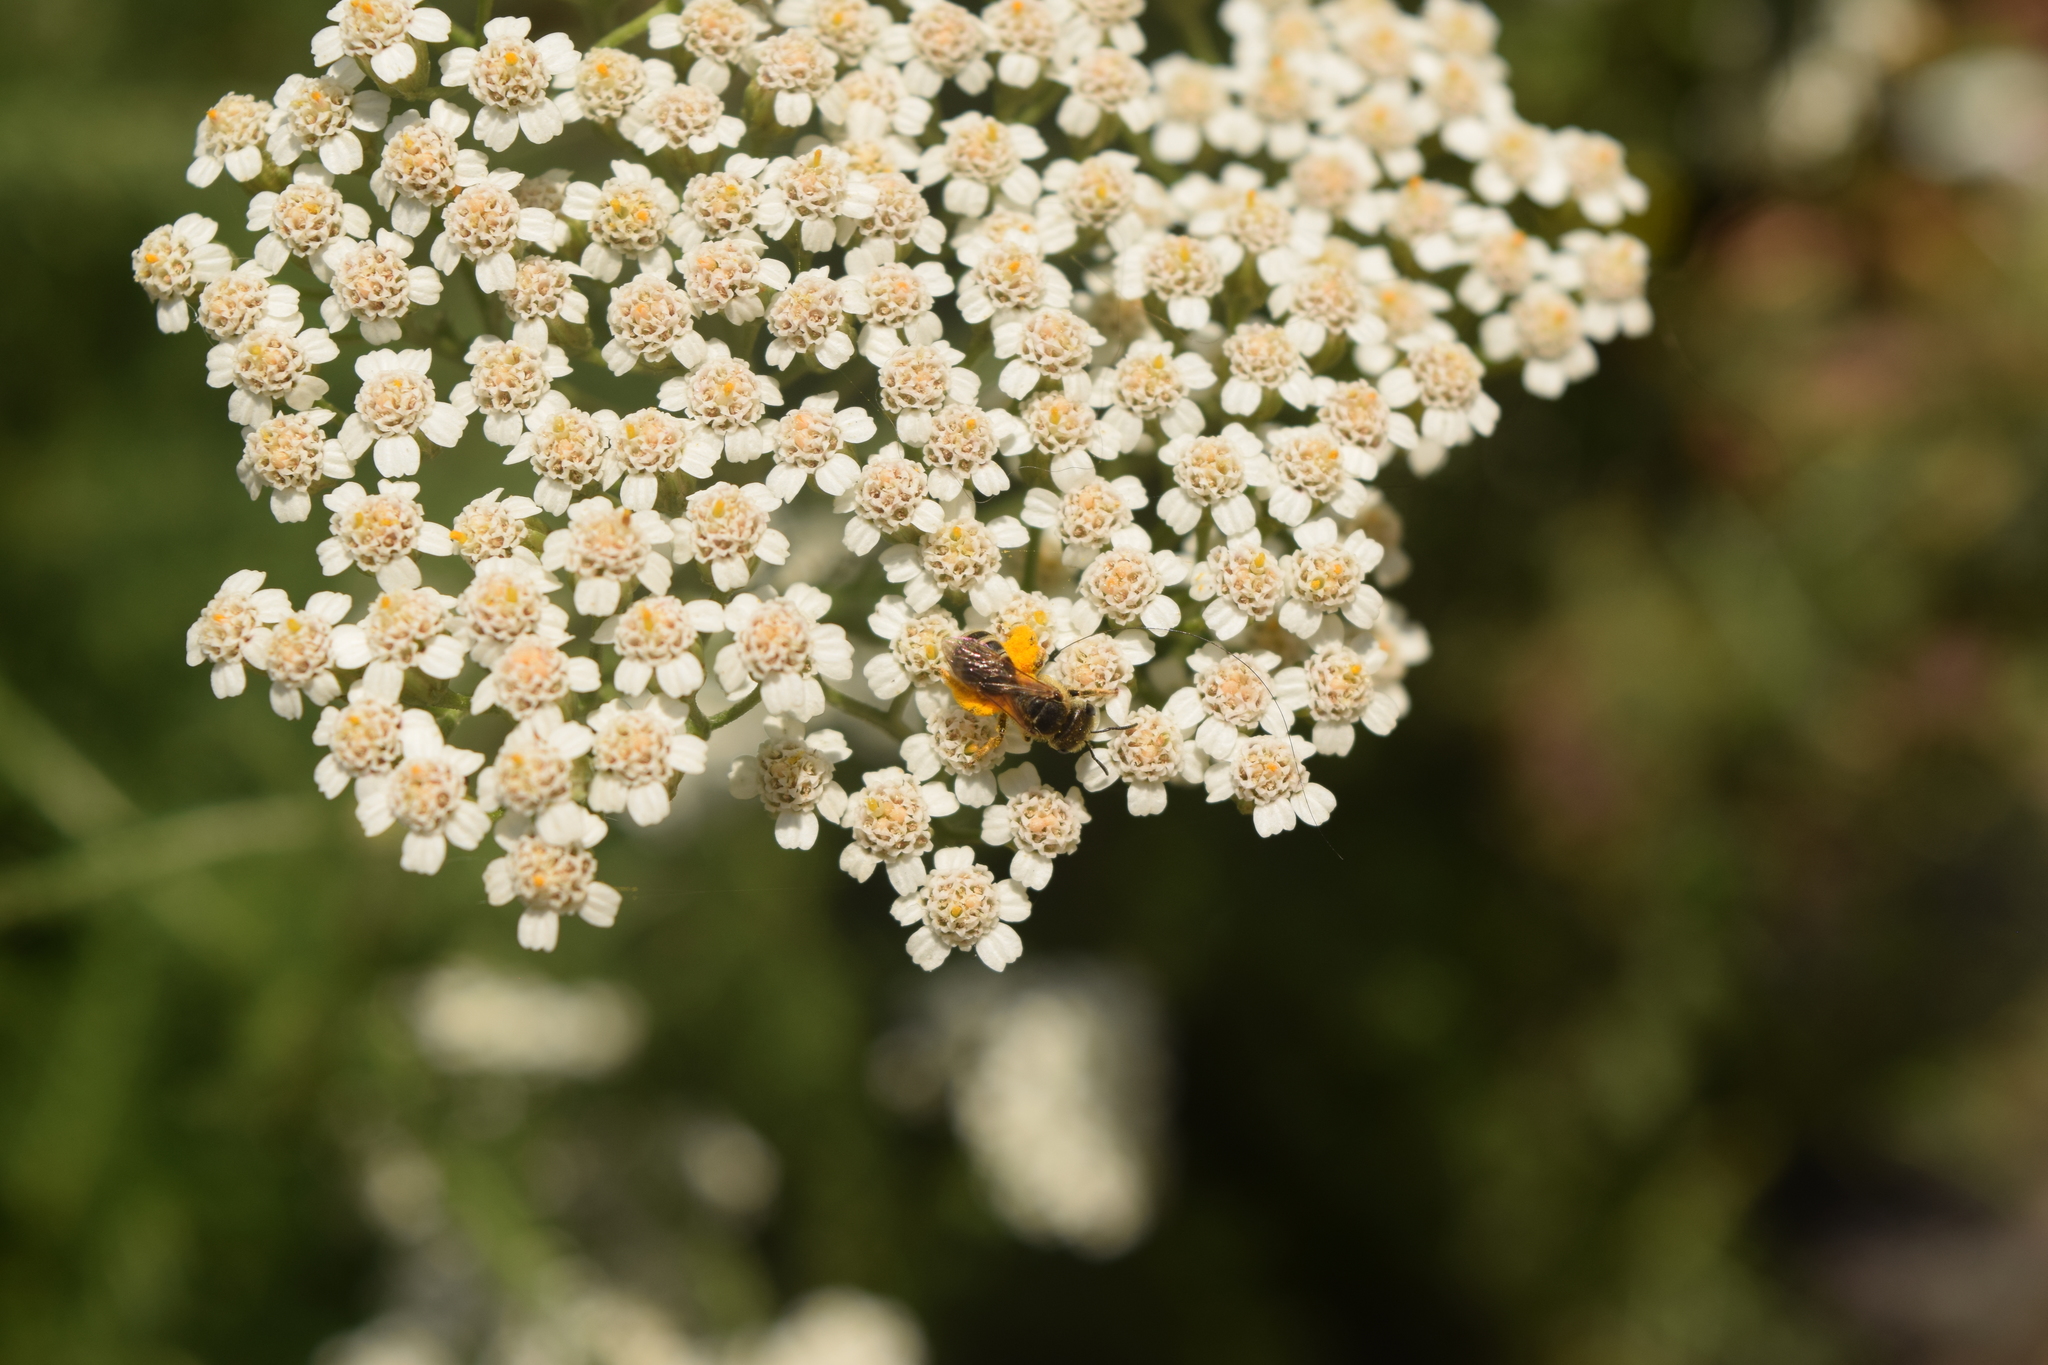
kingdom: Animalia
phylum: Arthropoda
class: Insecta
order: Hymenoptera
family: Halictidae
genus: Halictus
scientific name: Halictus ligatus
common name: Ligated furrow bee
